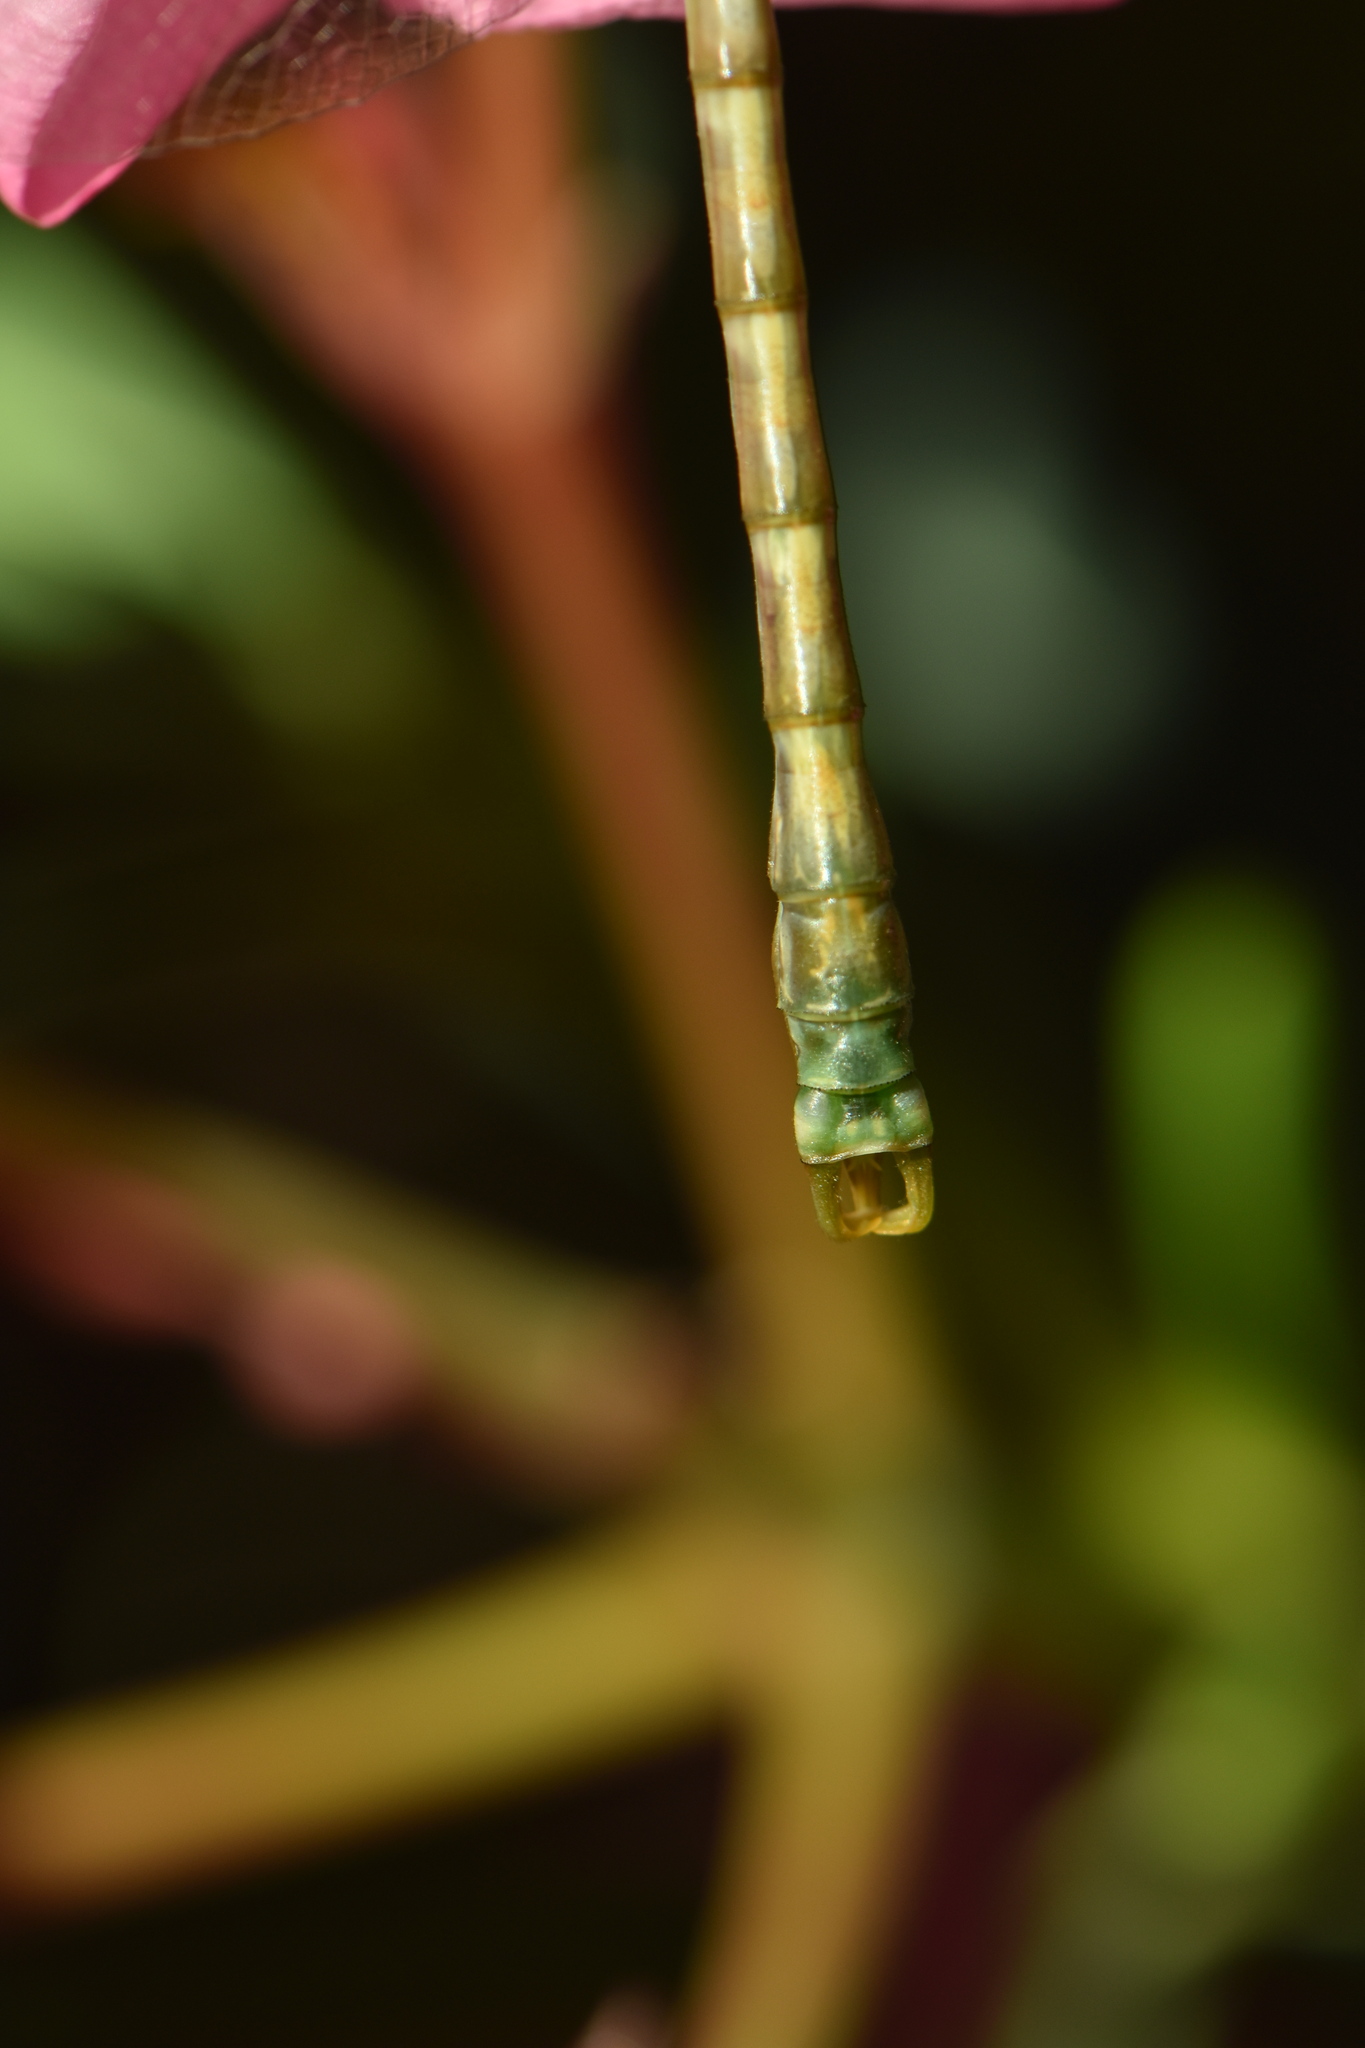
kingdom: Animalia
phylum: Arthropoda
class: Insecta
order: Odonata
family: Gomphidae
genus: Onychogomphus
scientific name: Onychogomphus forcipatus
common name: Small pincertail
